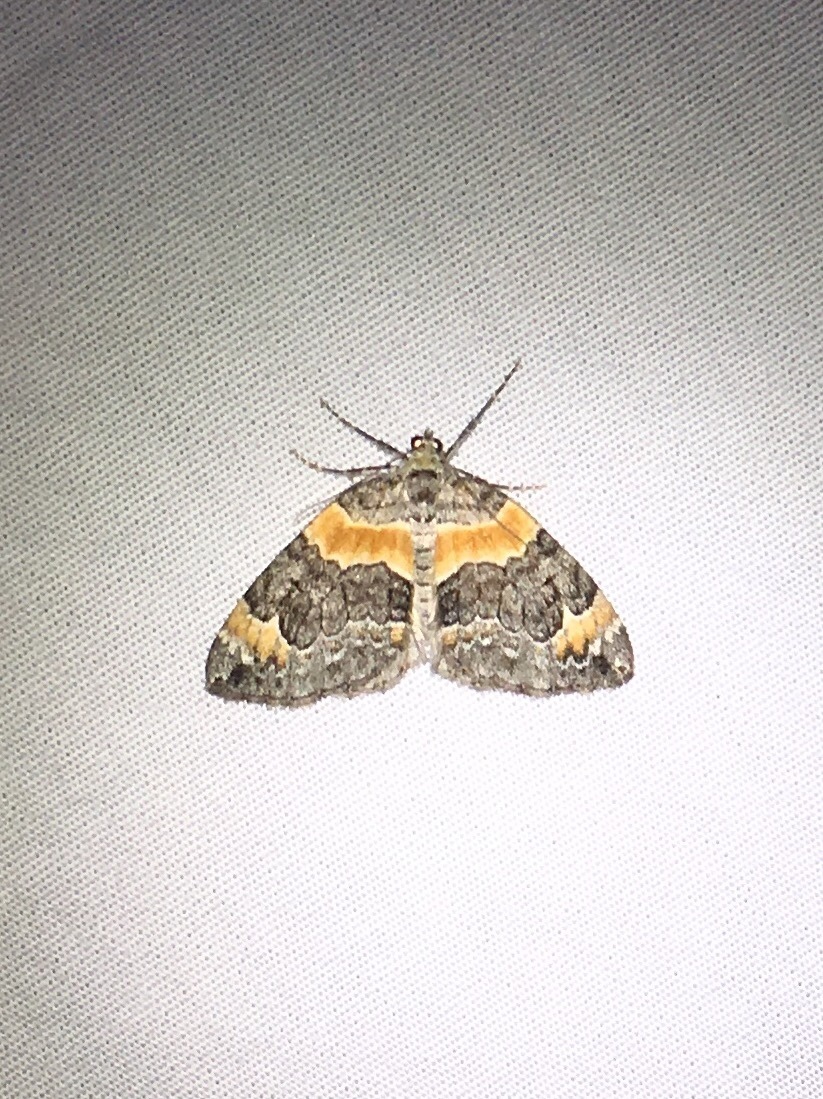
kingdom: Animalia
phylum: Arthropoda
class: Insecta
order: Lepidoptera
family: Geometridae
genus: Dysstroma
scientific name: Dysstroma hersiliata
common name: Orange-barred carpet
